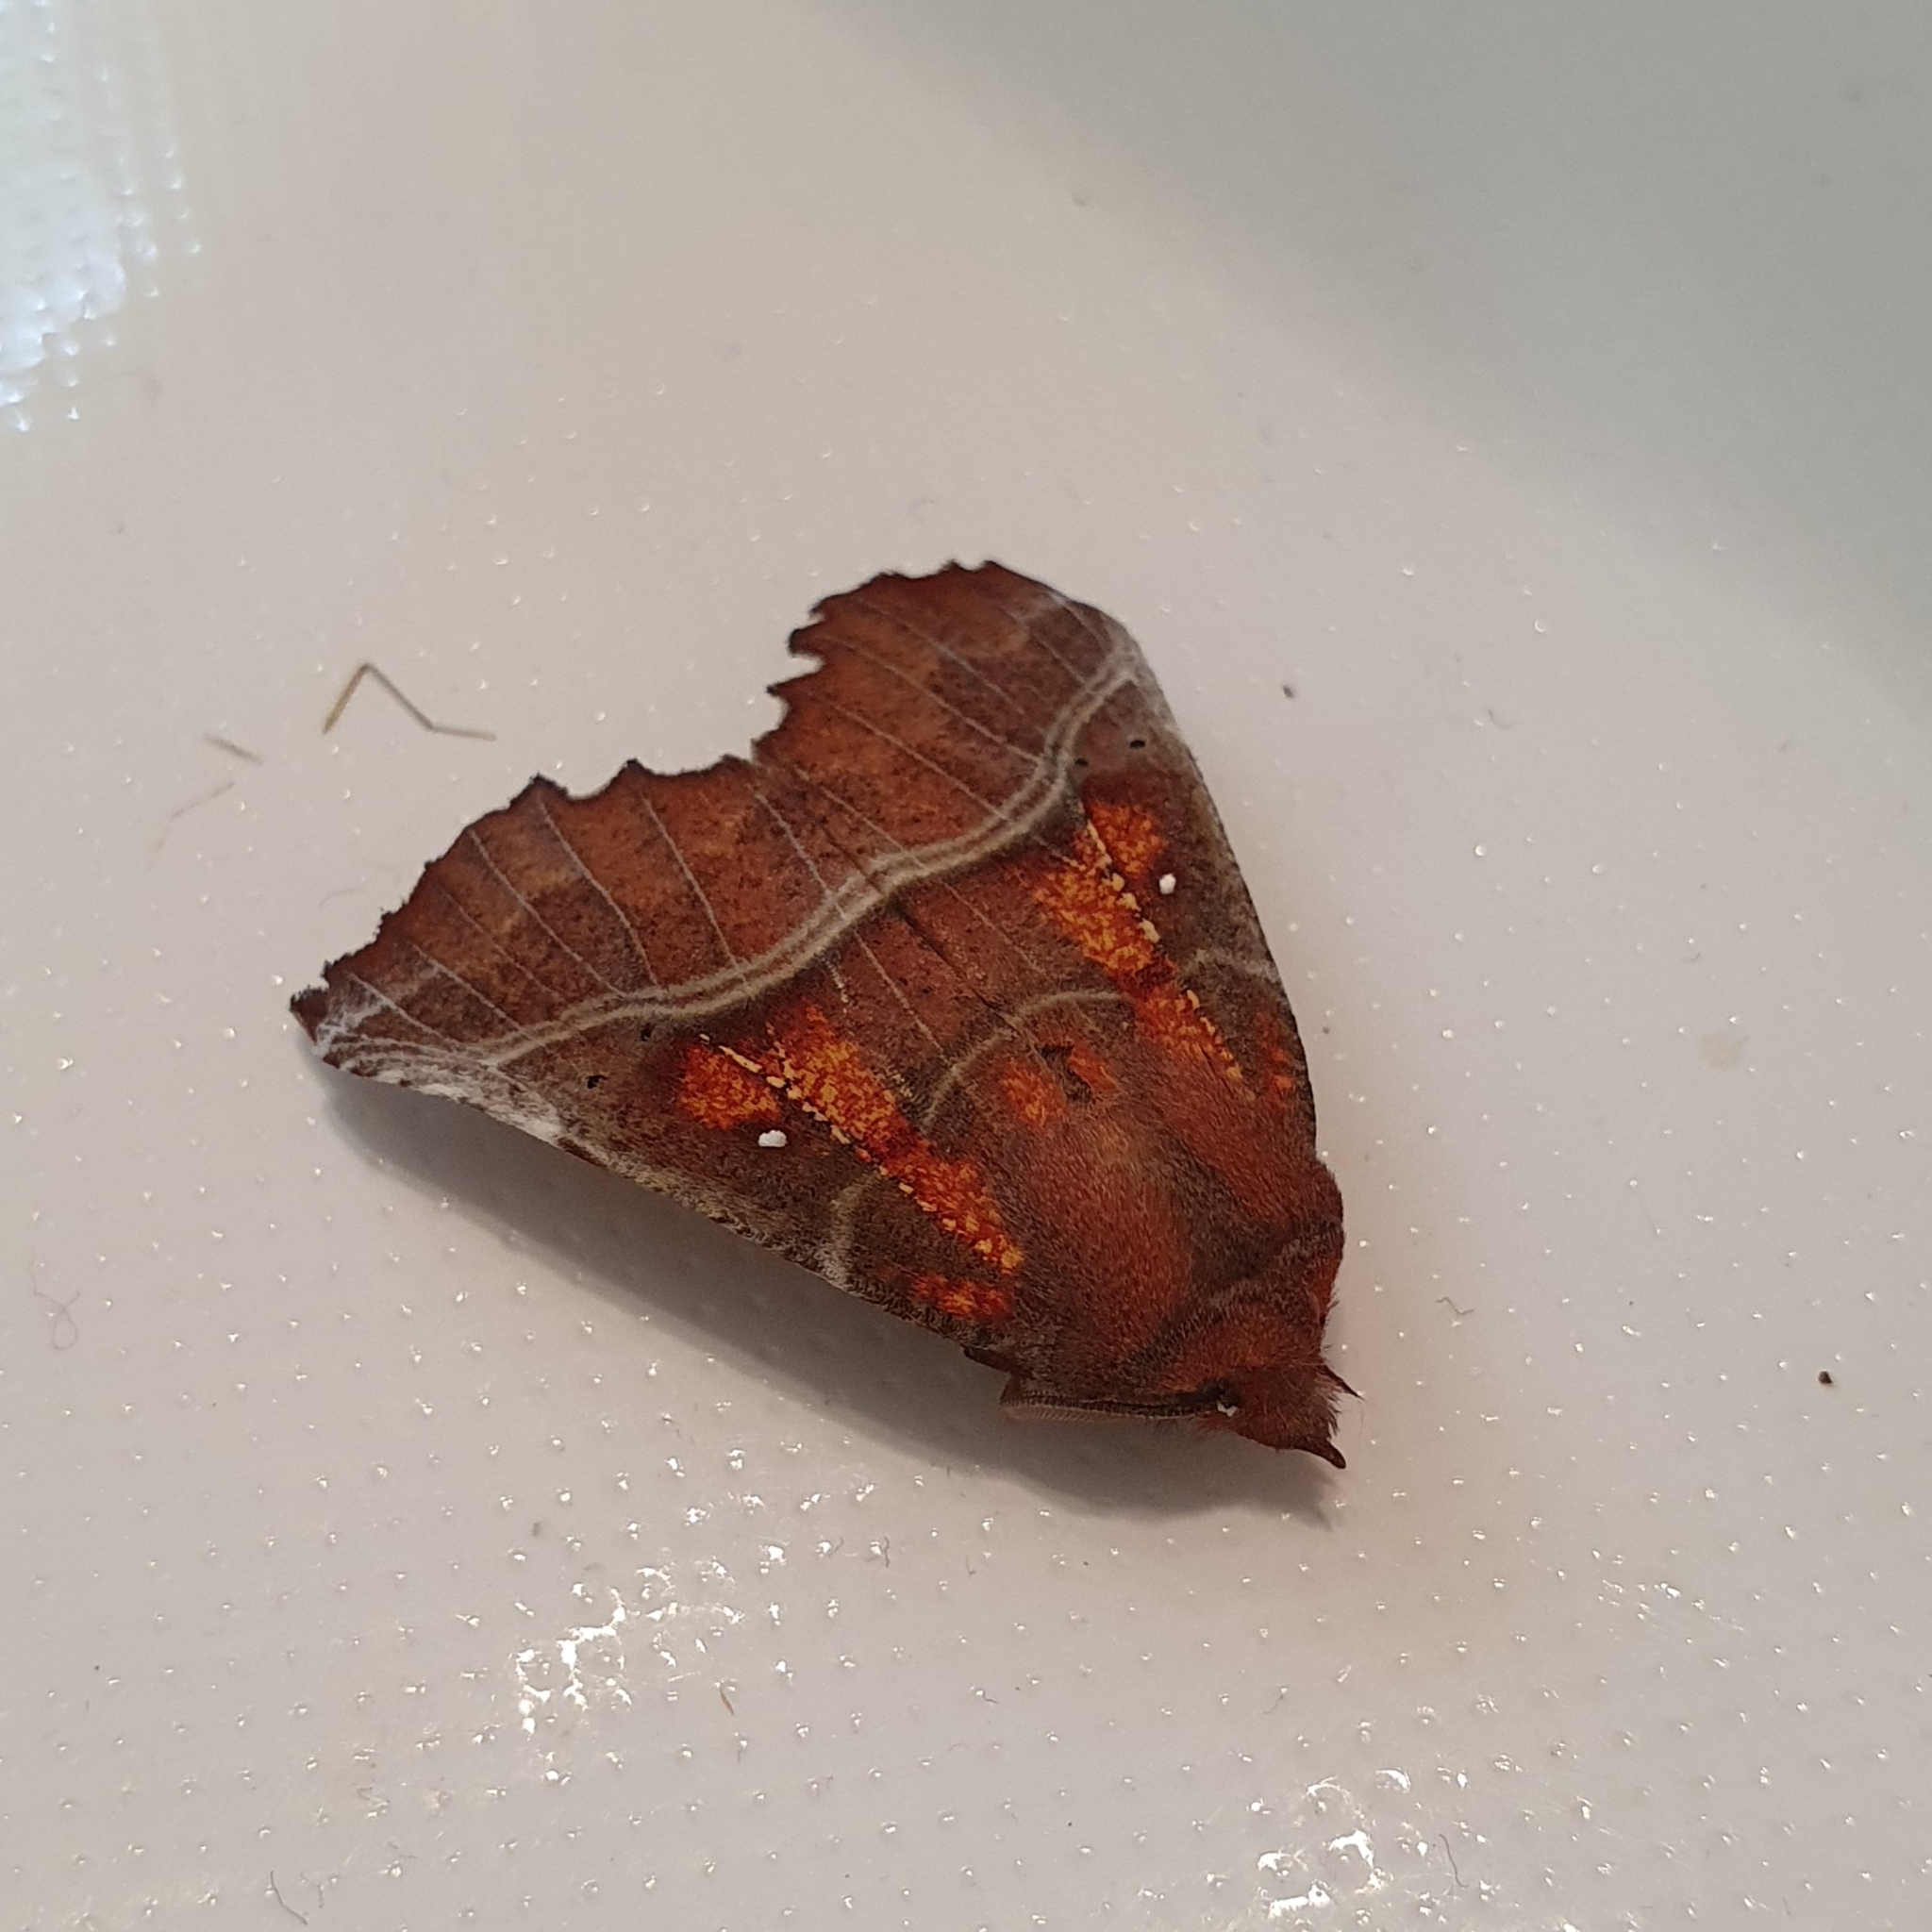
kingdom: Animalia
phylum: Arthropoda
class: Insecta
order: Lepidoptera
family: Erebidae
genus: Scoliopteryx
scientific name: Scoliopteryx libatrix
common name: Herald
